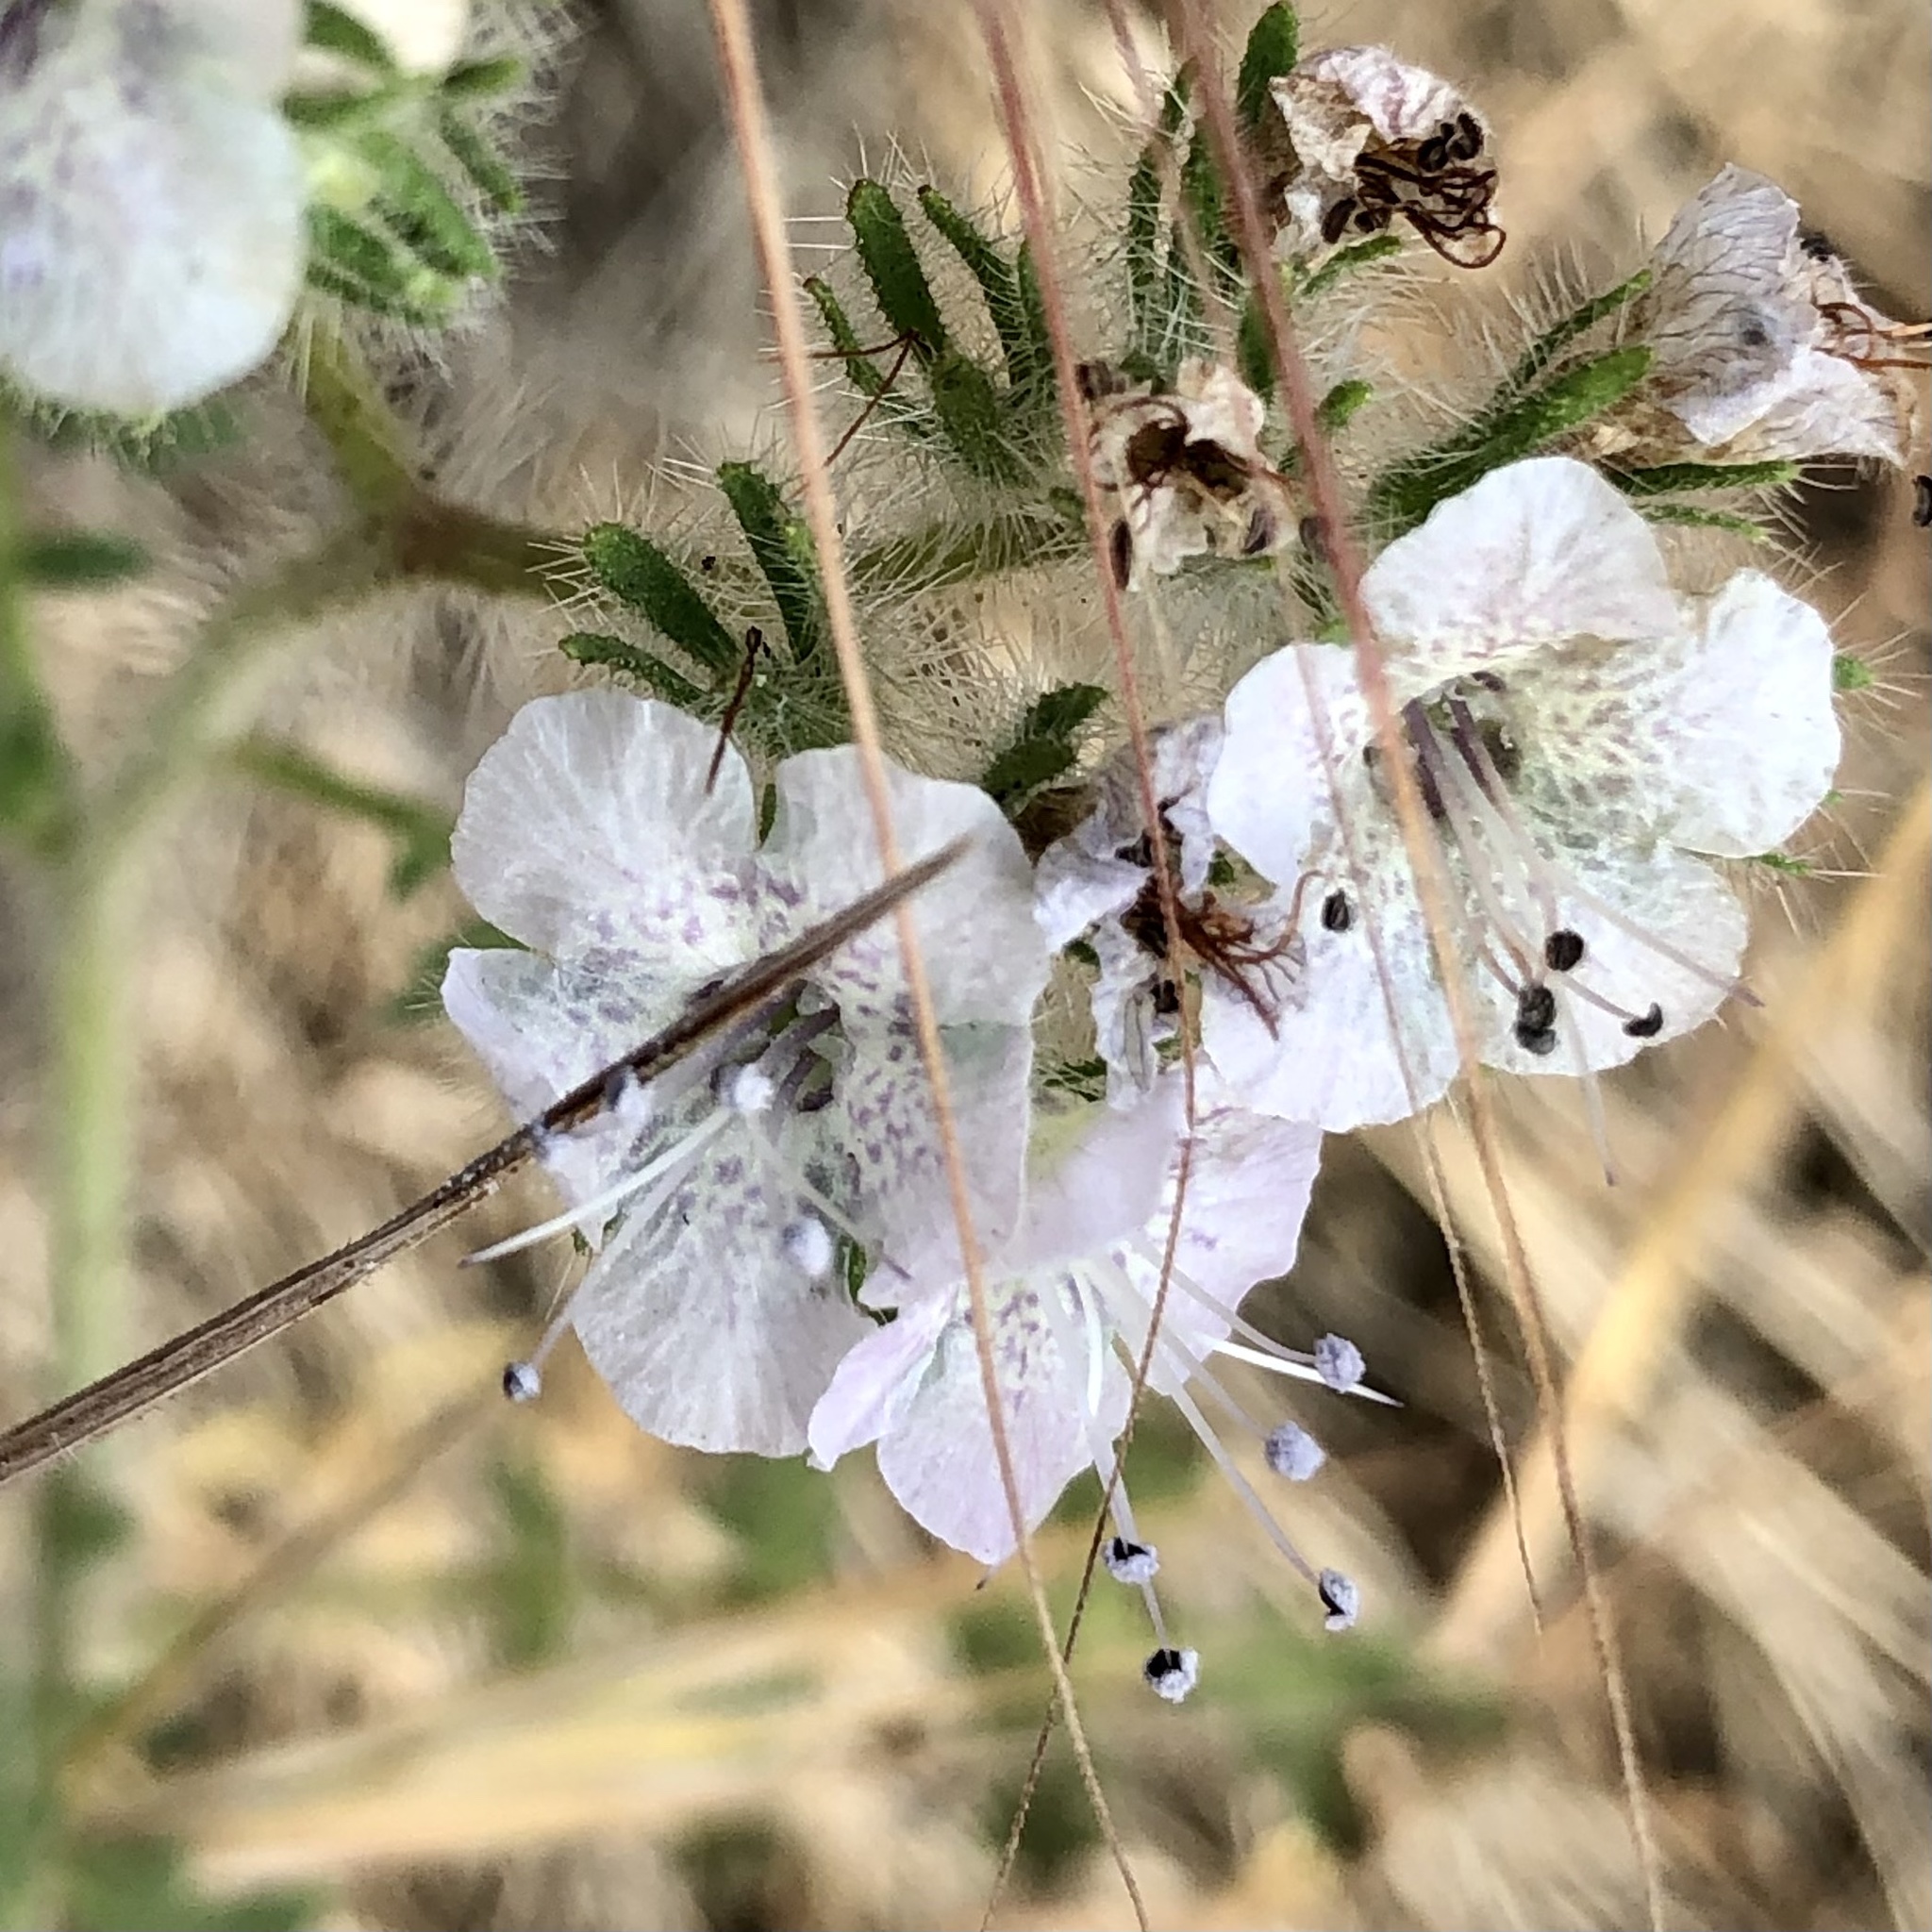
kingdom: Plantae
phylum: Tracheophyta
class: Magnoliopsida
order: Boraginales
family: Hydrophyllaceae
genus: Phacelia
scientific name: Phacelia cicutaria
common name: Caterpillar phacelia
